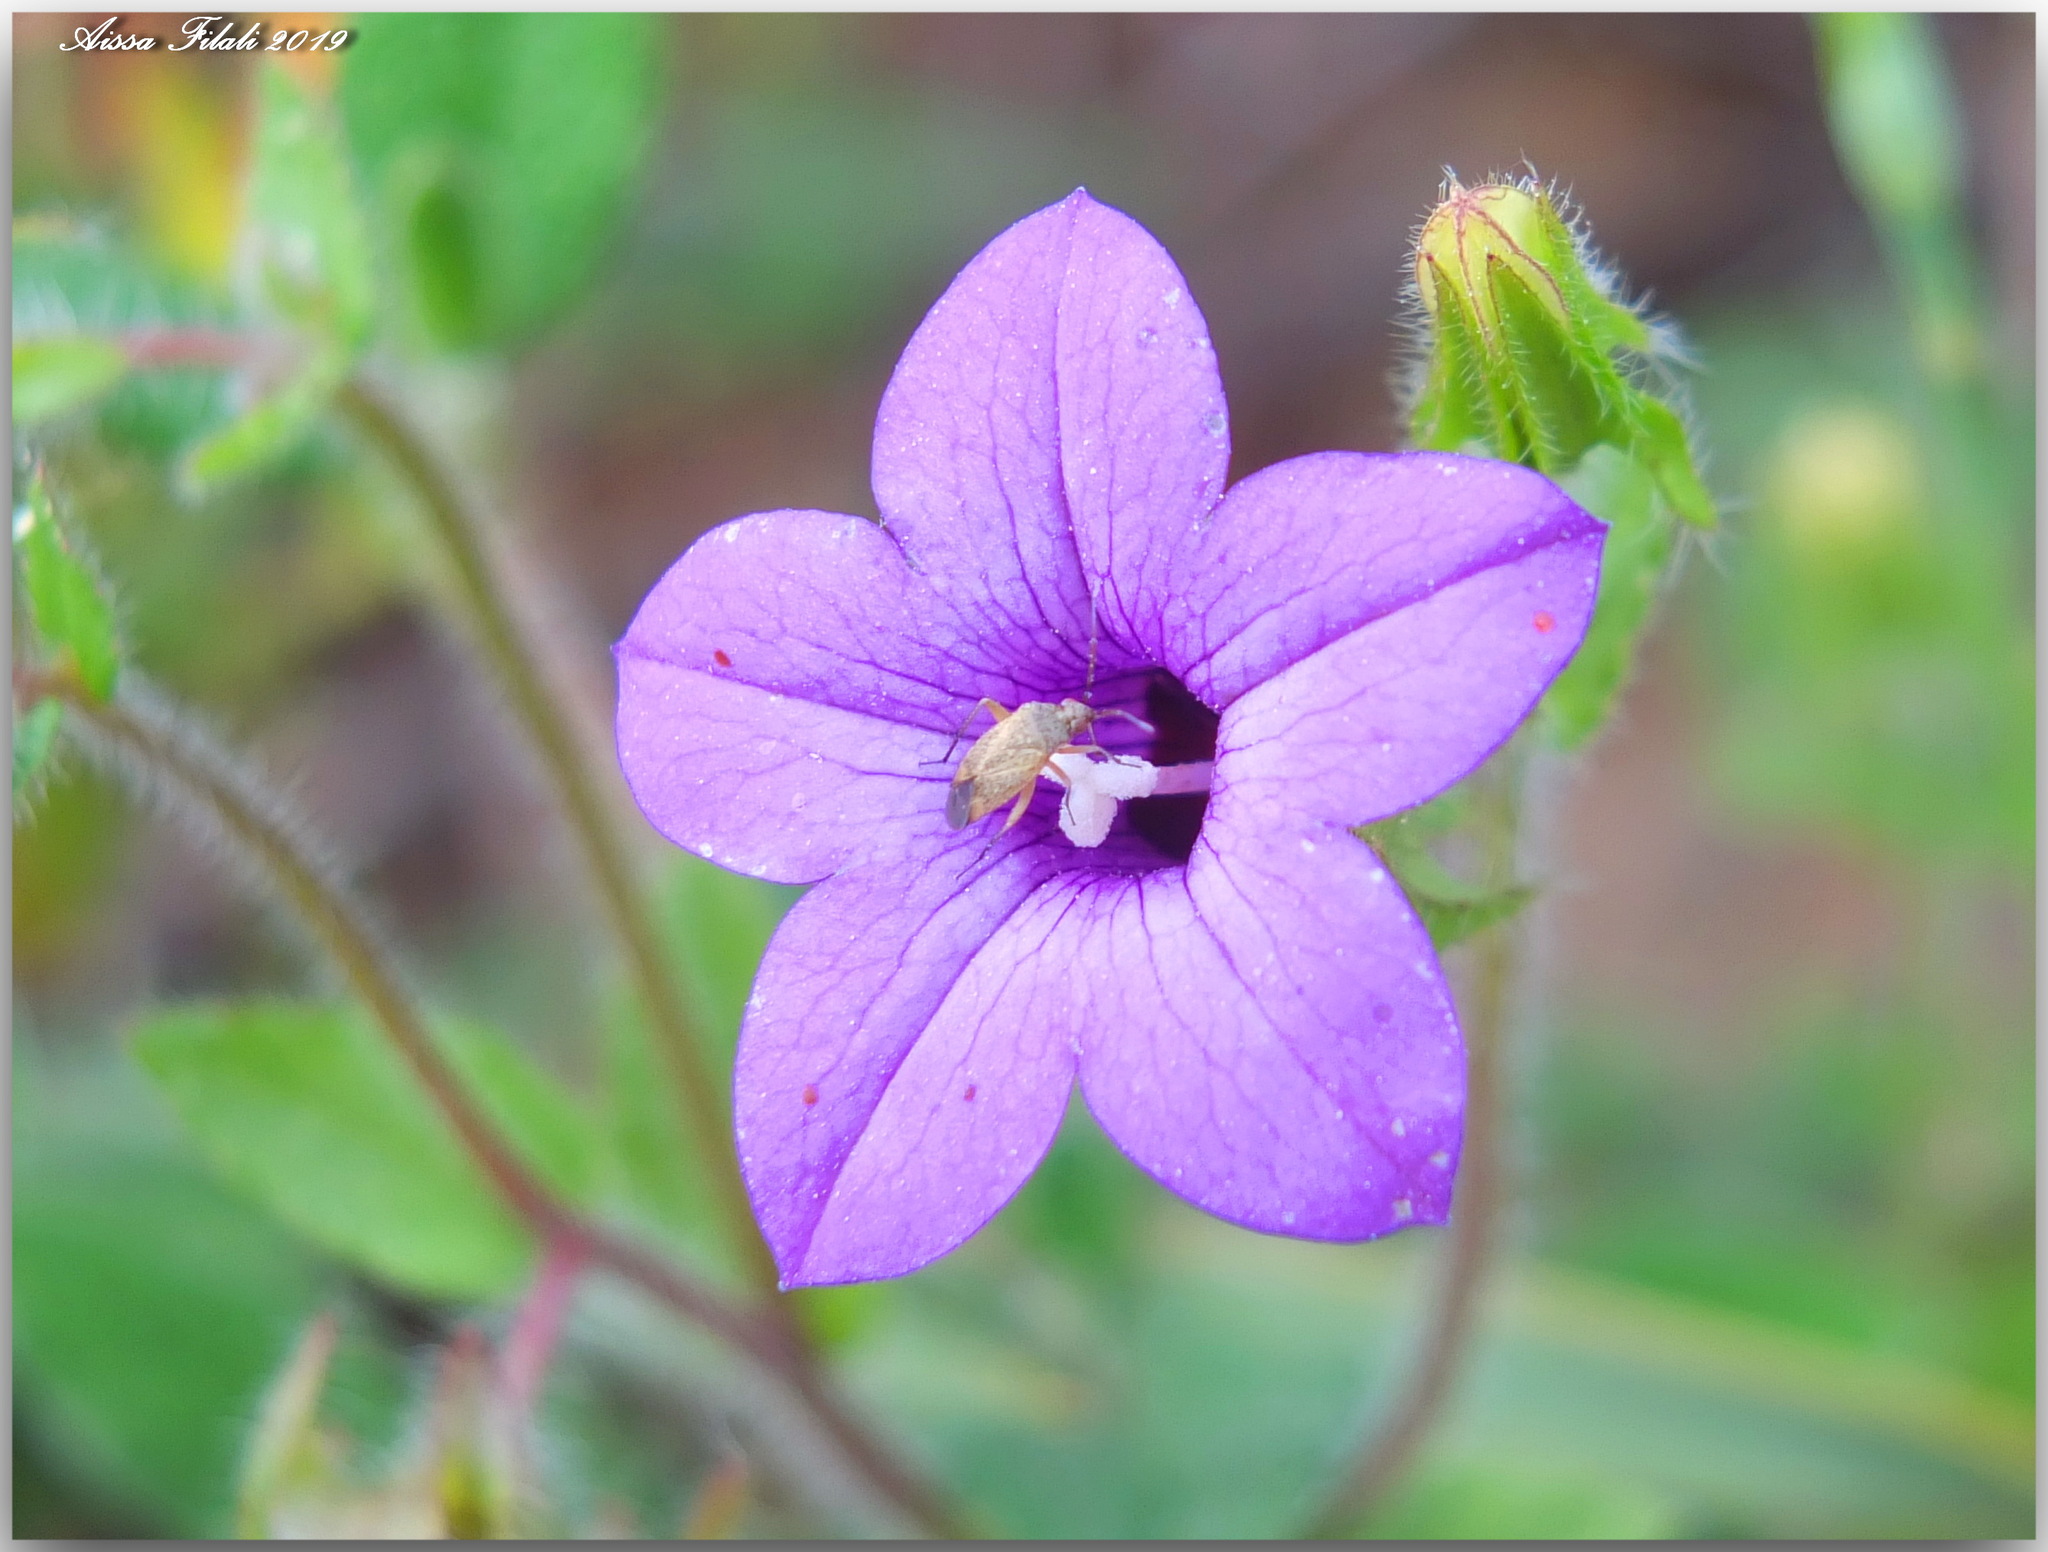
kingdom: Plantae
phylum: Tracheophyta
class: Magnoliopsida
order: Asterales
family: Campanulaceae
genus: Campanula
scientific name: Campanula dichotoma
